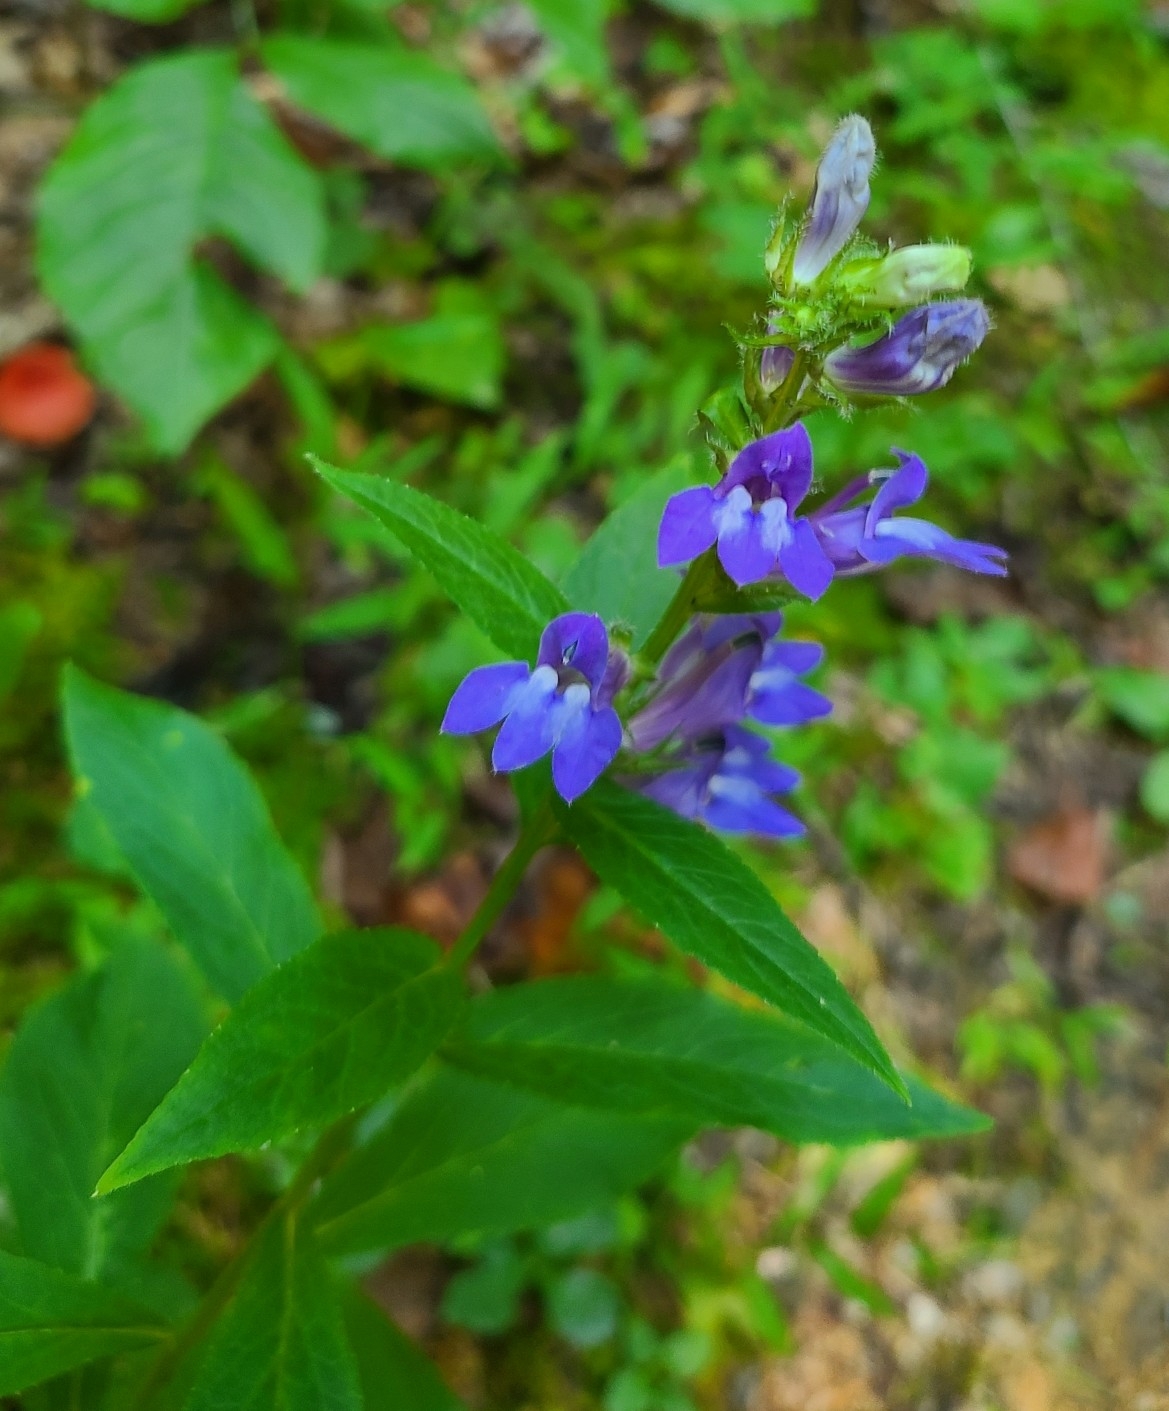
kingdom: Plantae
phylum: Tracheophyta
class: Magnoliopsida
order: Asterales
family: Campanulaceae
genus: Lobelia
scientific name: Lobelia siphilitica
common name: Great lobelia
